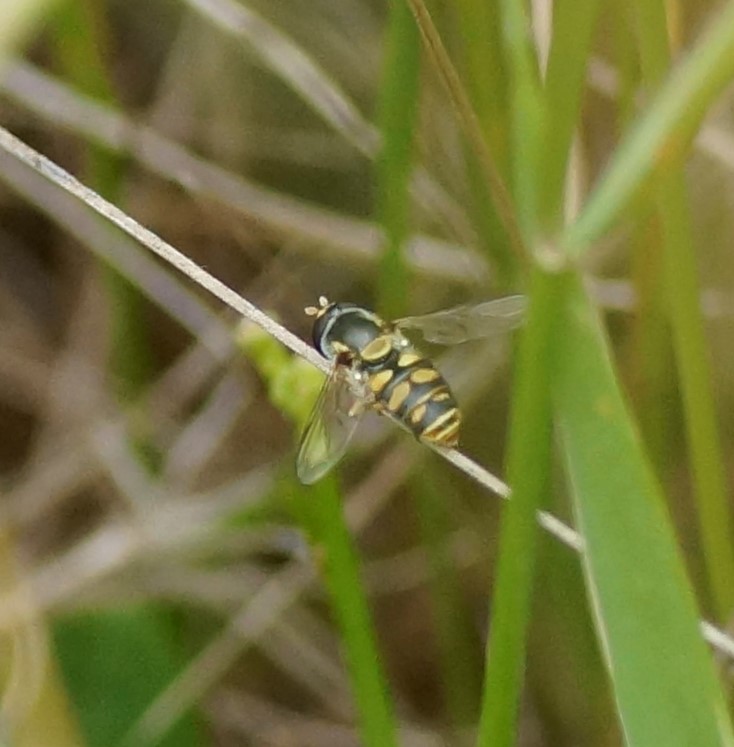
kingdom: Animalia
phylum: Arthropoda
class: Insecta
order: Diptera
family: Syrphidae
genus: Simosyrphus
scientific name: Simosyrphus grandicornis
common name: Hoverfly
